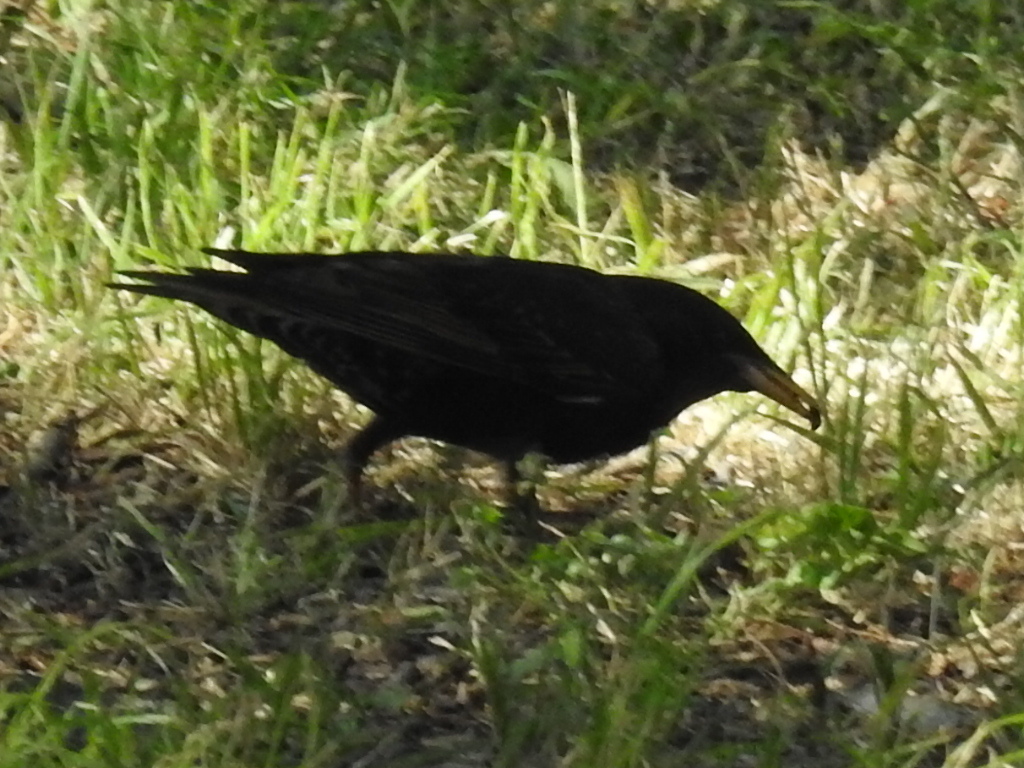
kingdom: Animalia
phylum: Chordata
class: Aves
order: Passeriformes
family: Sturnidae
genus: Sturnus
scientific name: Sturnus vulgaris
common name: Common starling
